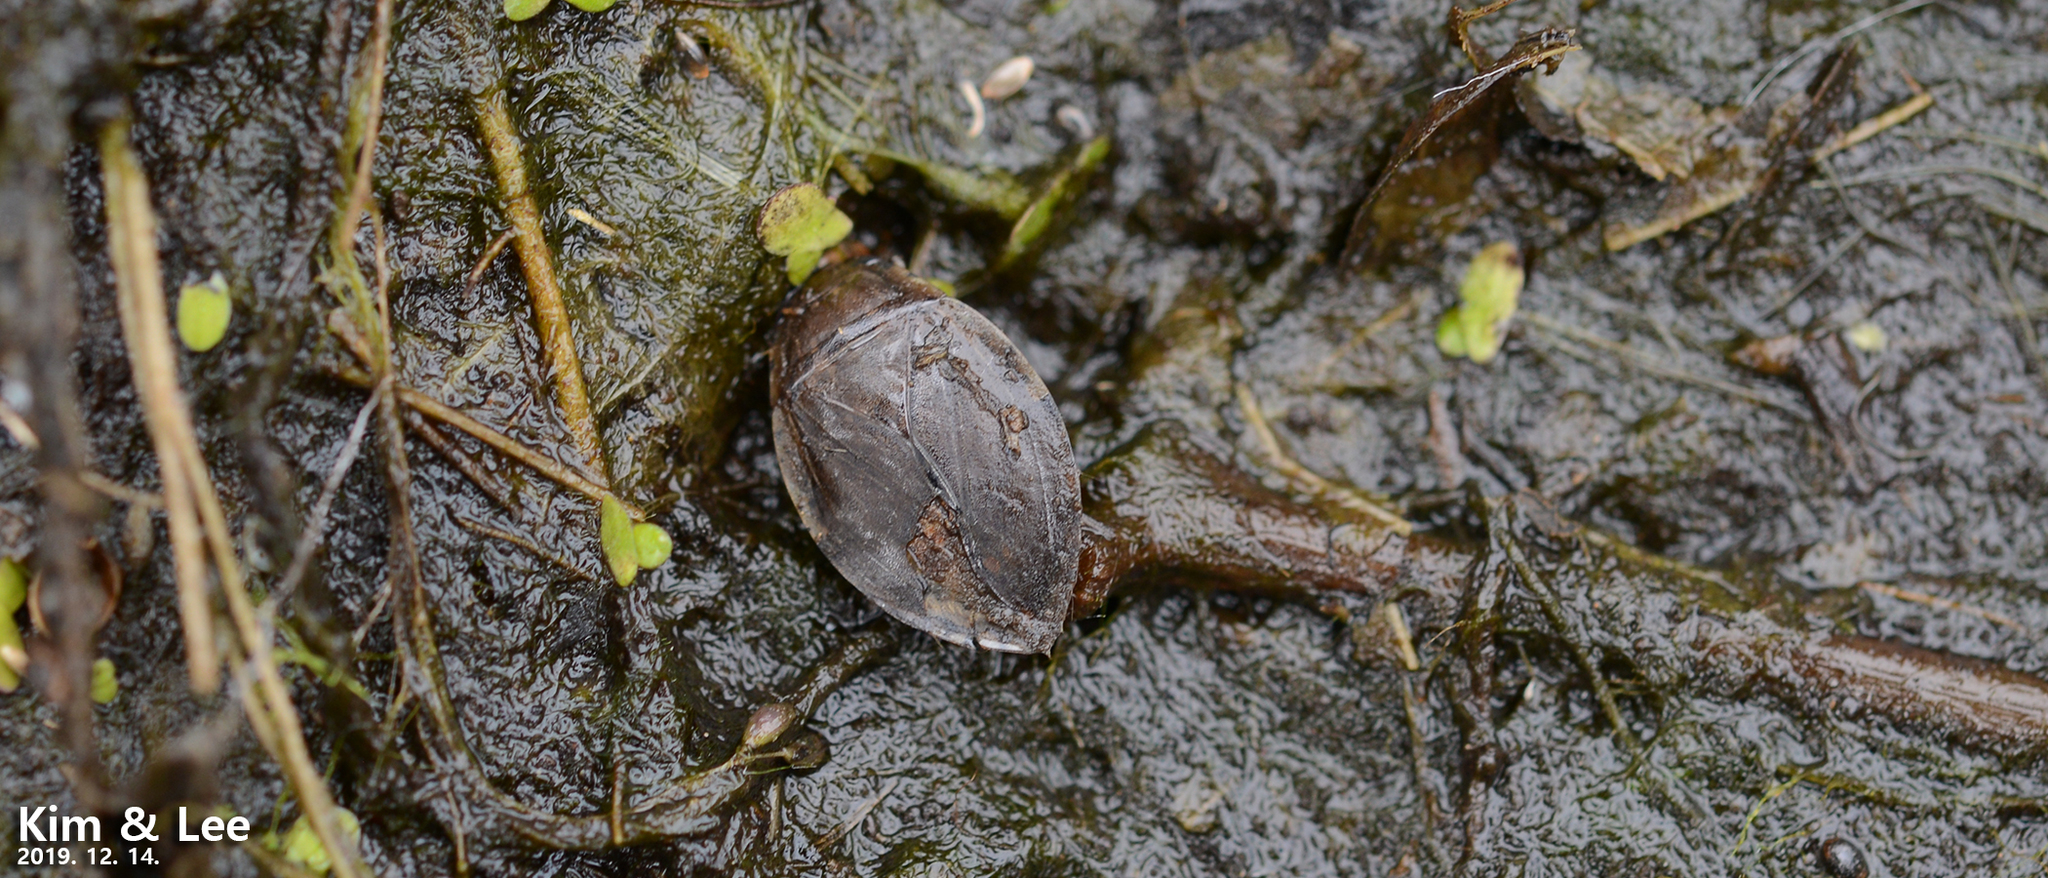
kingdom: Animalia
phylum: Arthropoda
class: Insecta
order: Hemiptera
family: Belostomatidae
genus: Appasus
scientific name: Appasus japonicus
